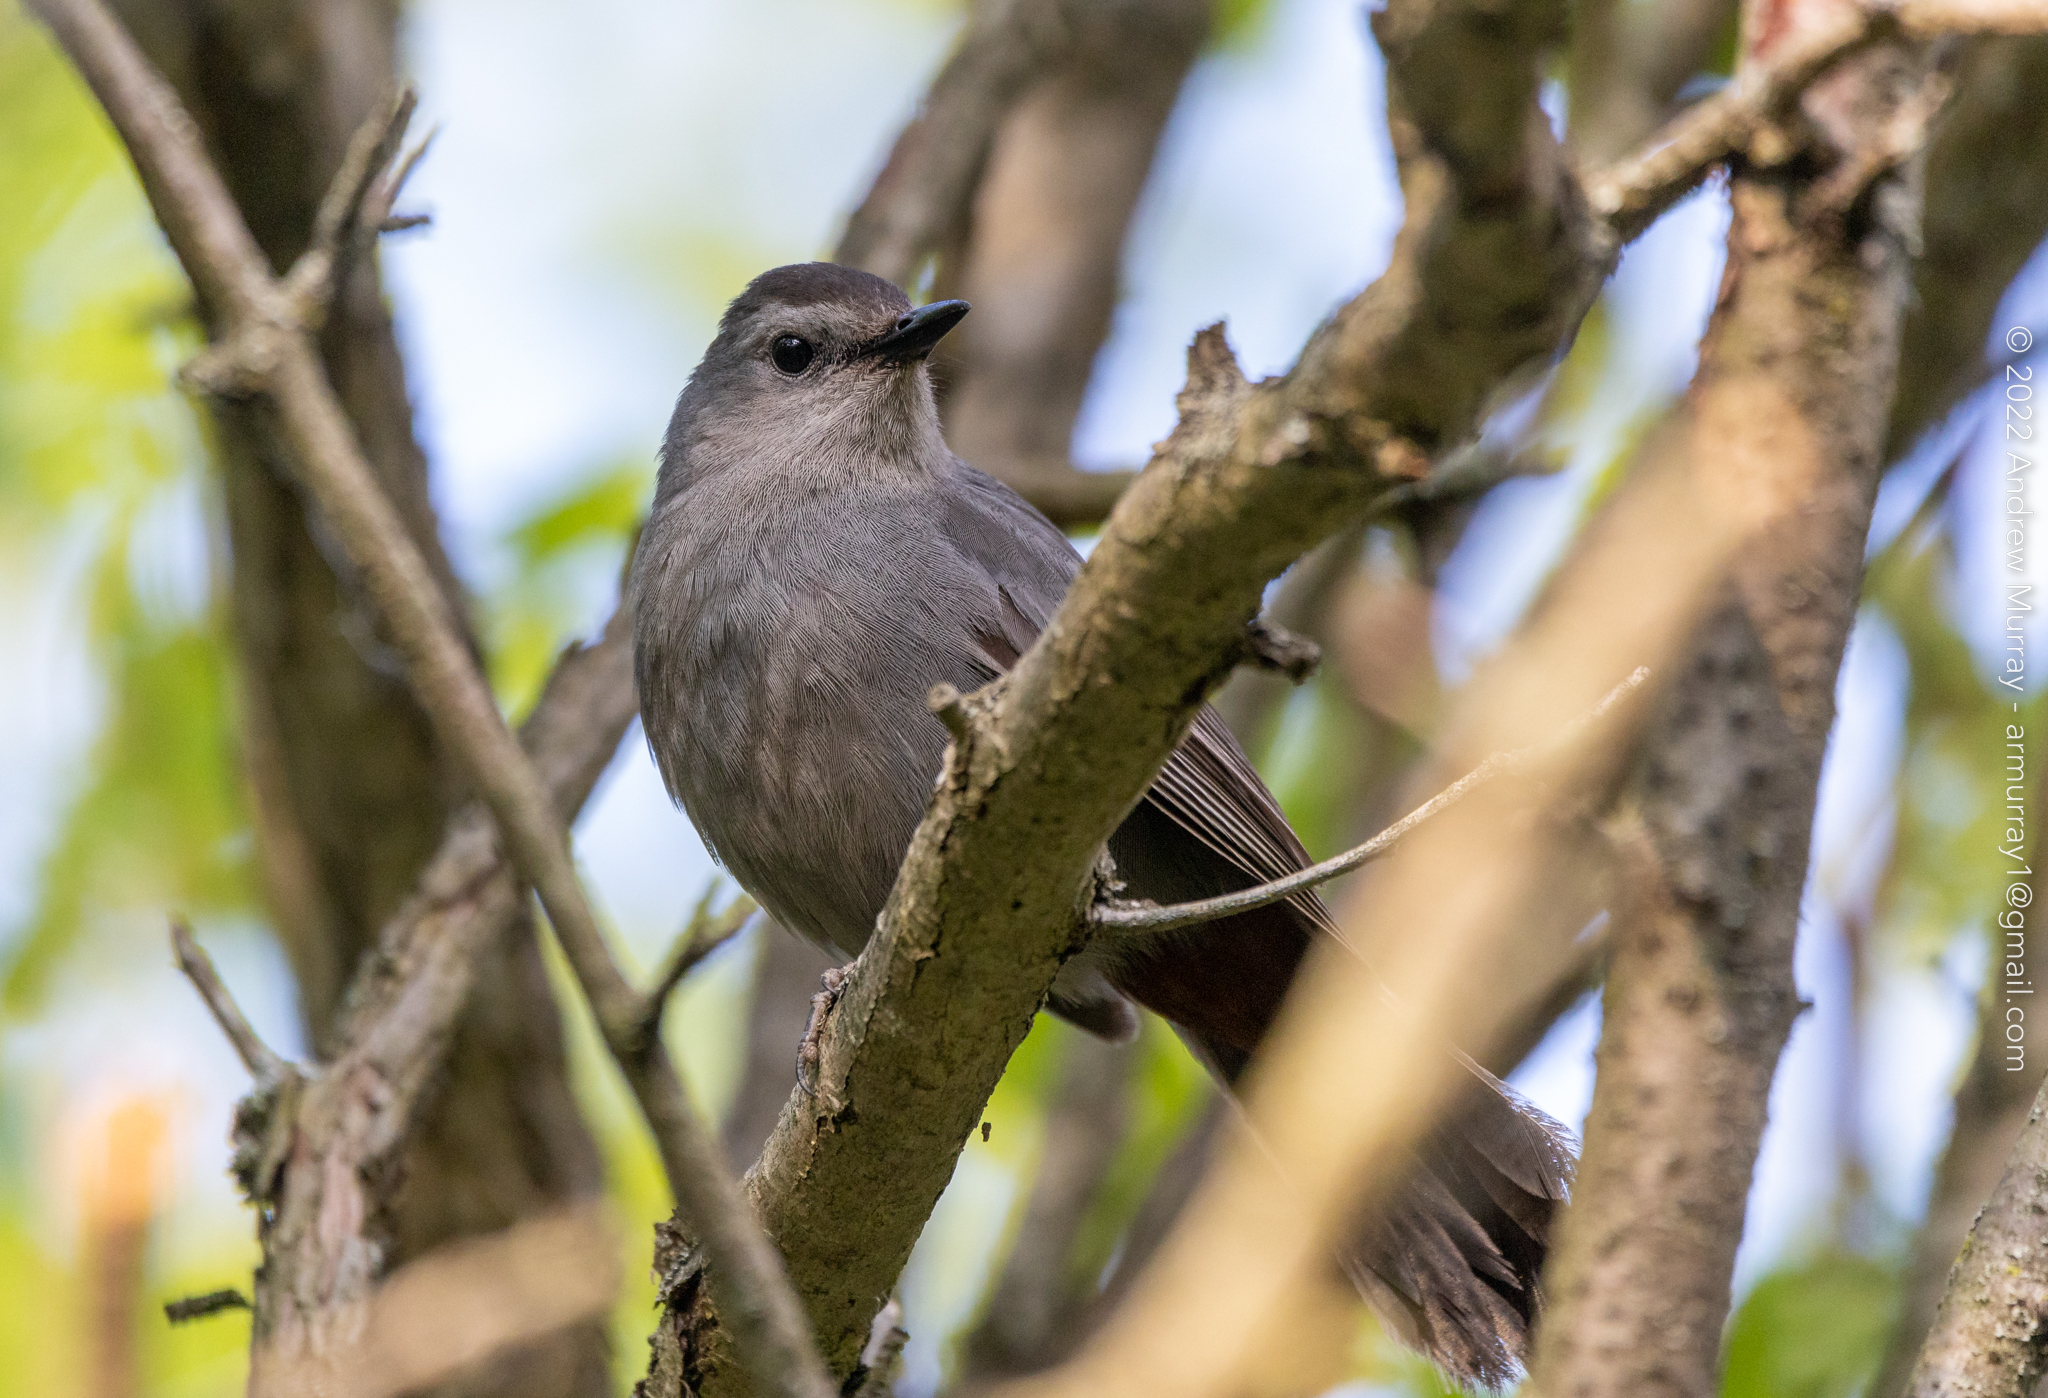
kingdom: Animalia
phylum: Chordata
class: Aves
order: Passeriformes
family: Mimidae
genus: Dumetella
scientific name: Dumetella carolinensis
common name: Gray catbird
